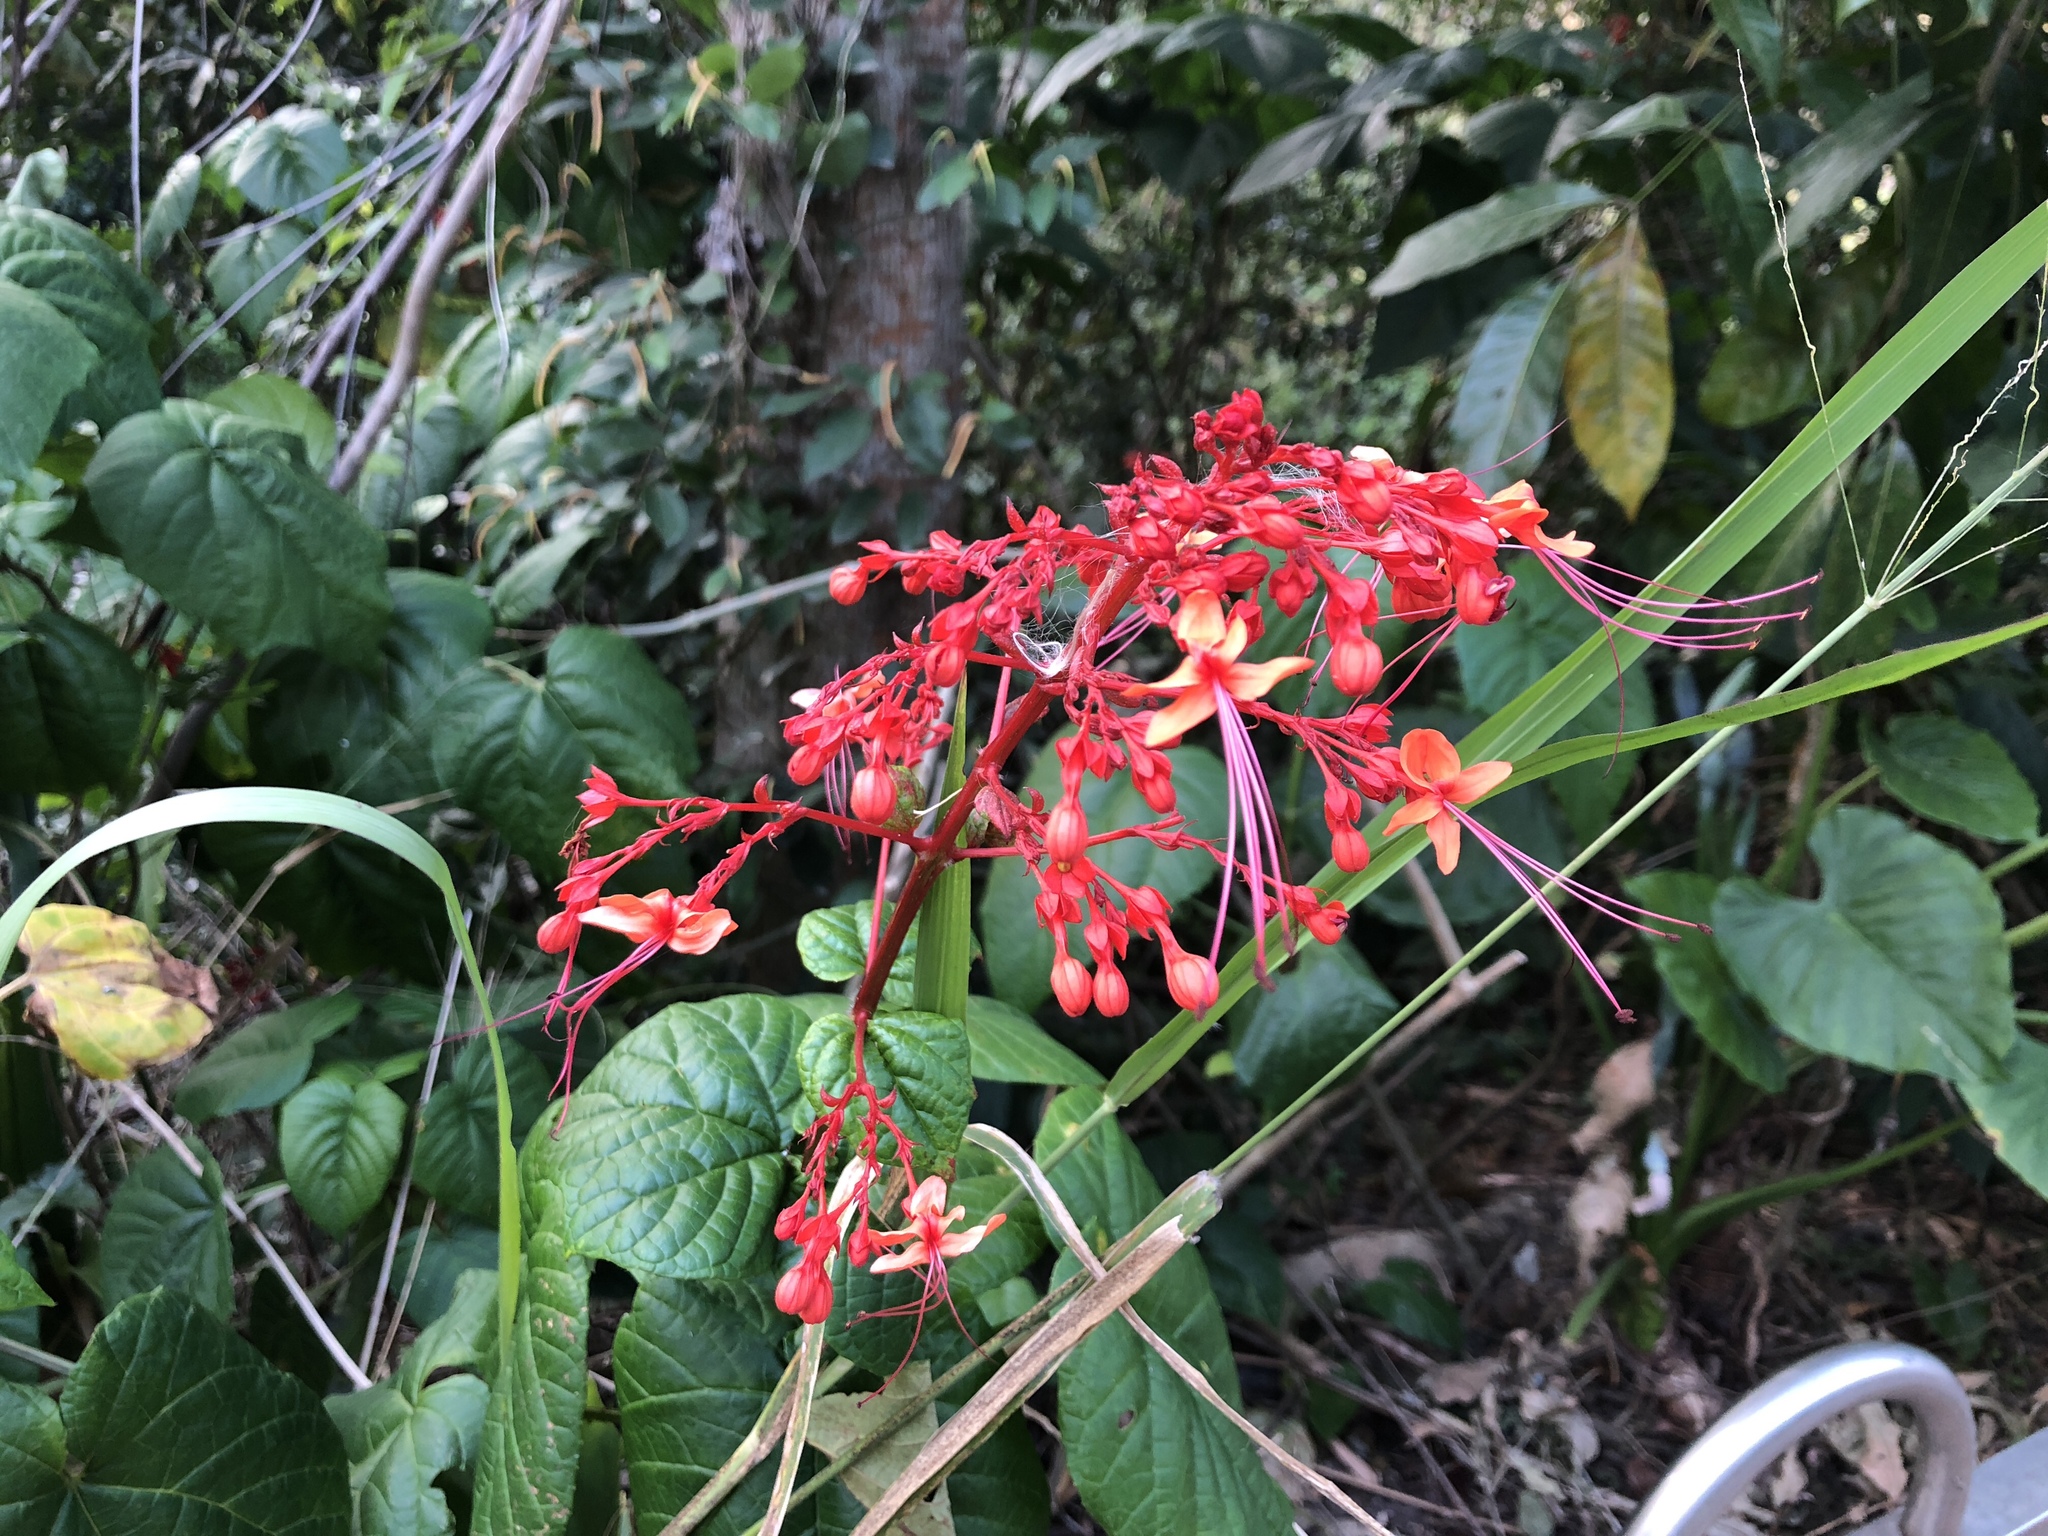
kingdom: Plantae
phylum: Tracheophyta
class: Magnoliopsida
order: Lamiales
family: Lamiaceae
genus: Clerodendrum
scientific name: Clerodendrum japonicum
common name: Japanese glorybower
